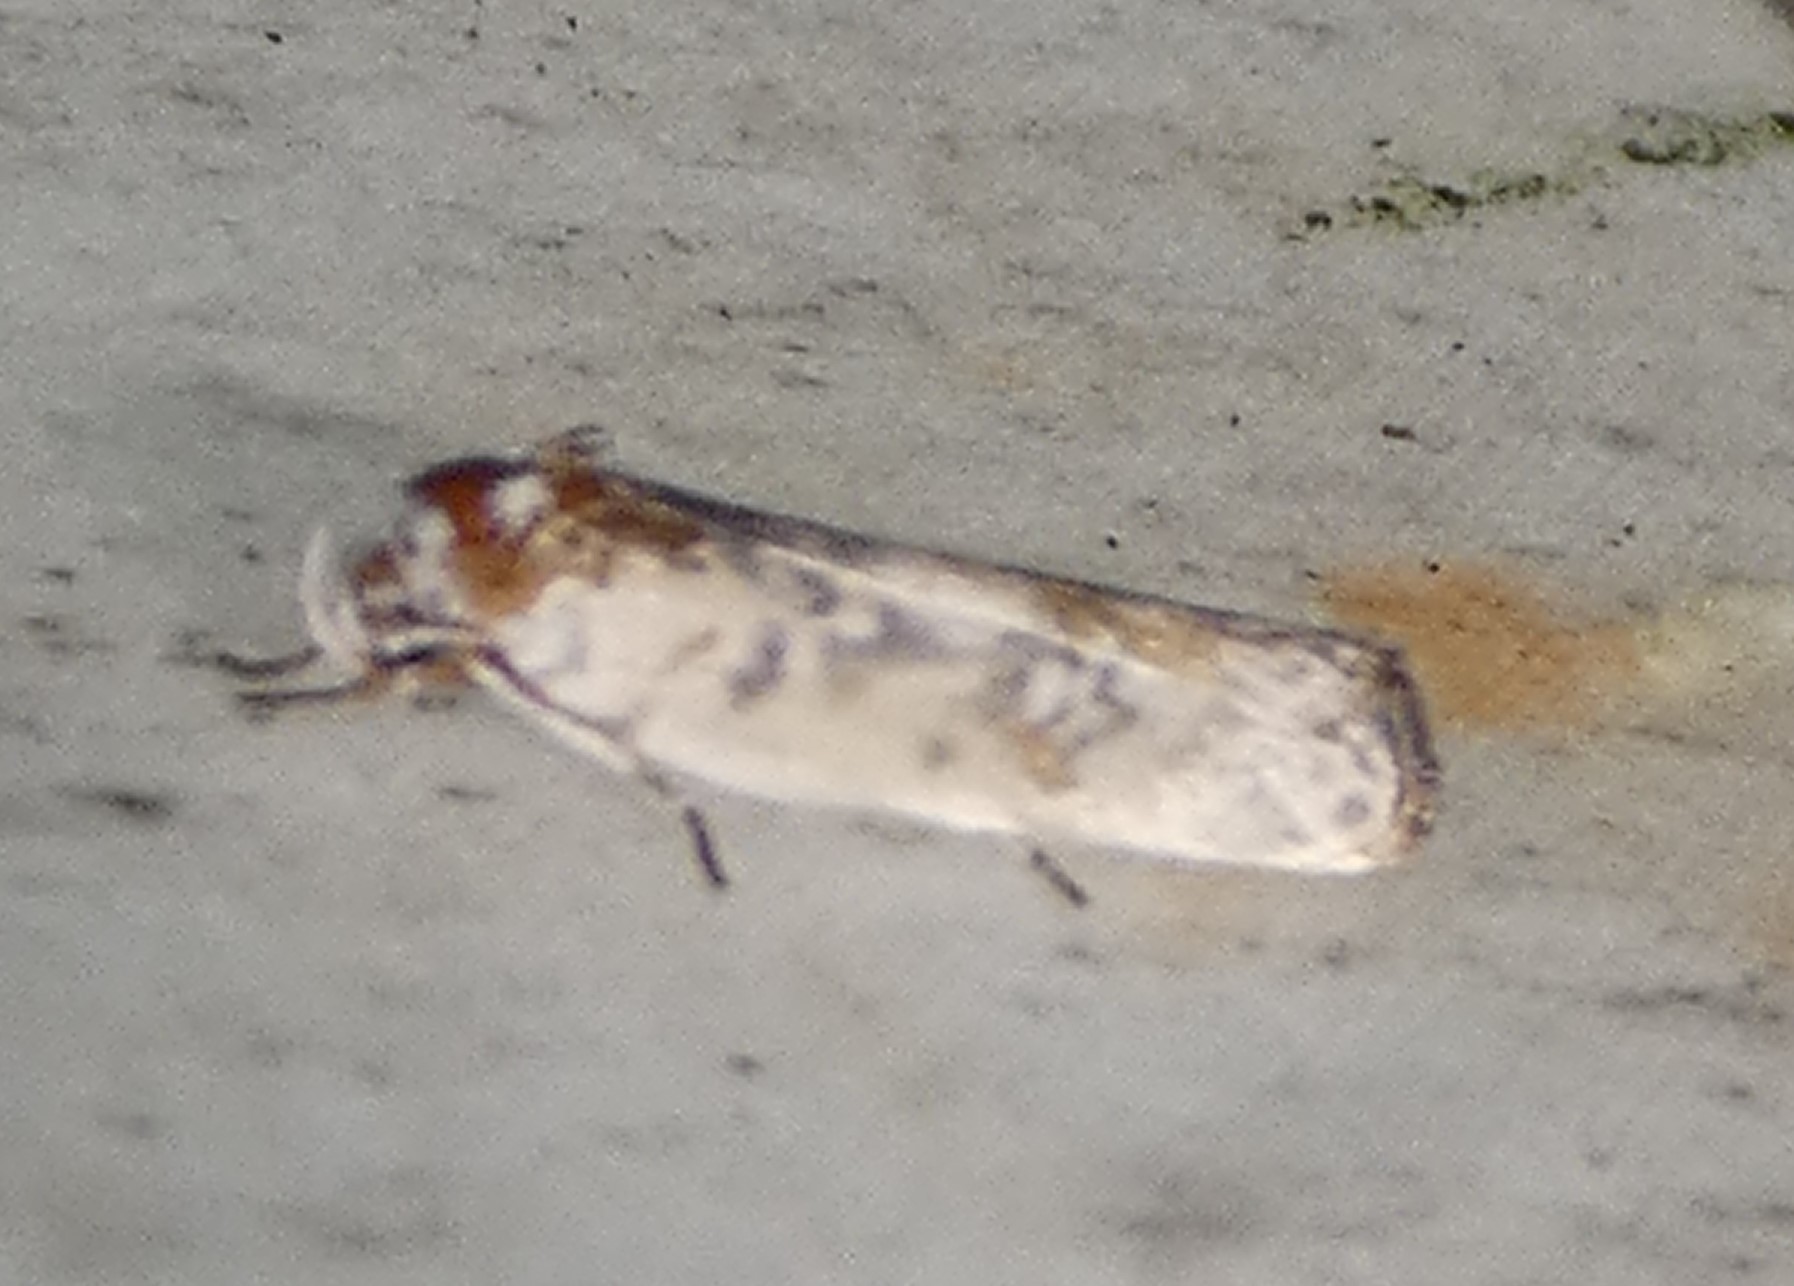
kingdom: Animalia
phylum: Arthropoda
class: Insecta
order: Lepidoptera
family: Depressariidae
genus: Antaeotricha
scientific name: Antaeotricha schlaegeri
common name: Schlaeger's fruitworm moth
